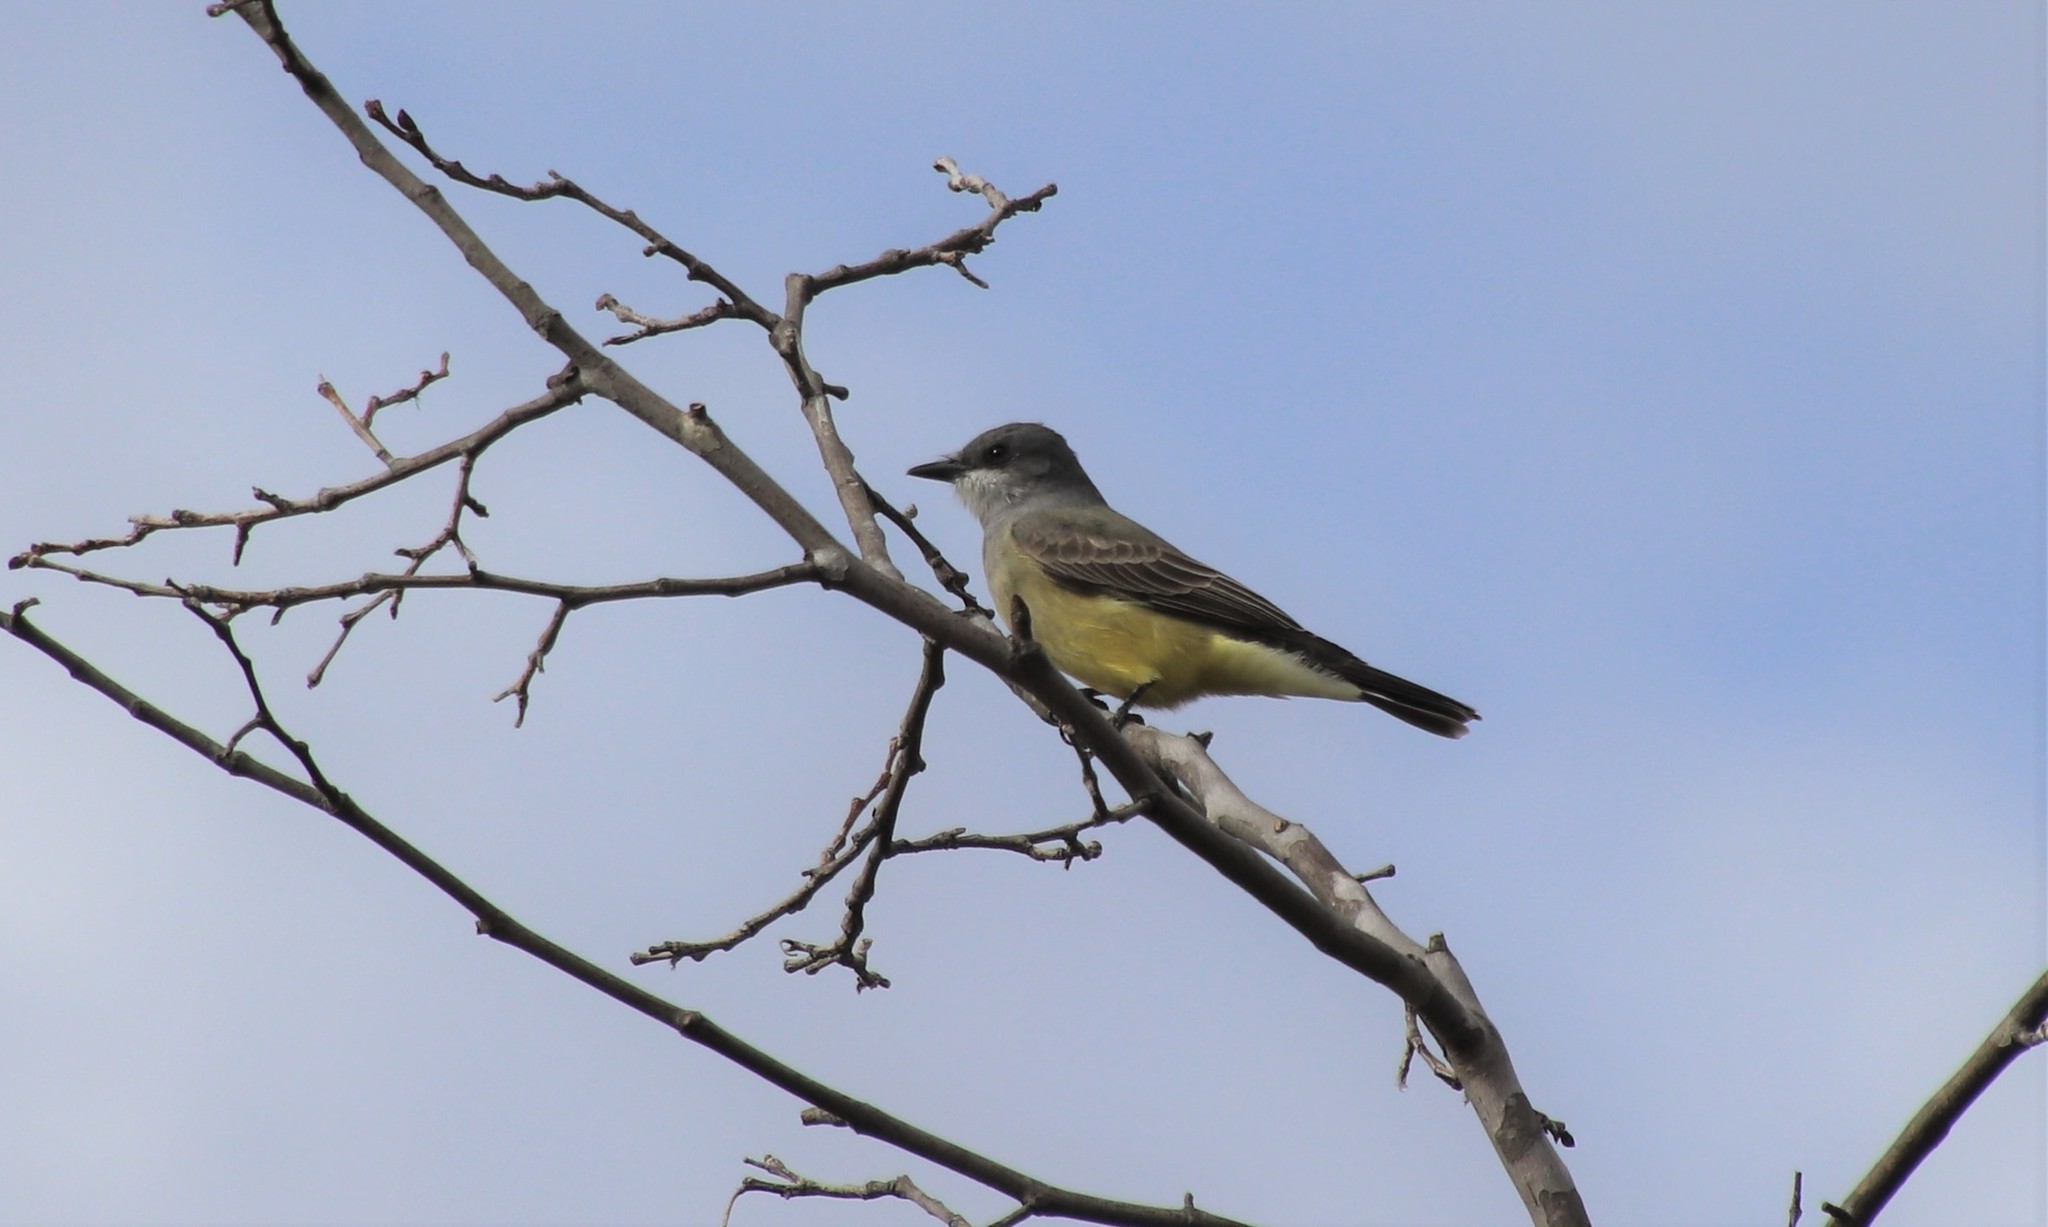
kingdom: Animalia
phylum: Chordata
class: Aves
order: Passeriformes
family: Tyrannidae
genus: Tyrannus
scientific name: Tyrannus vociferans
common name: Cassin's kingbird
